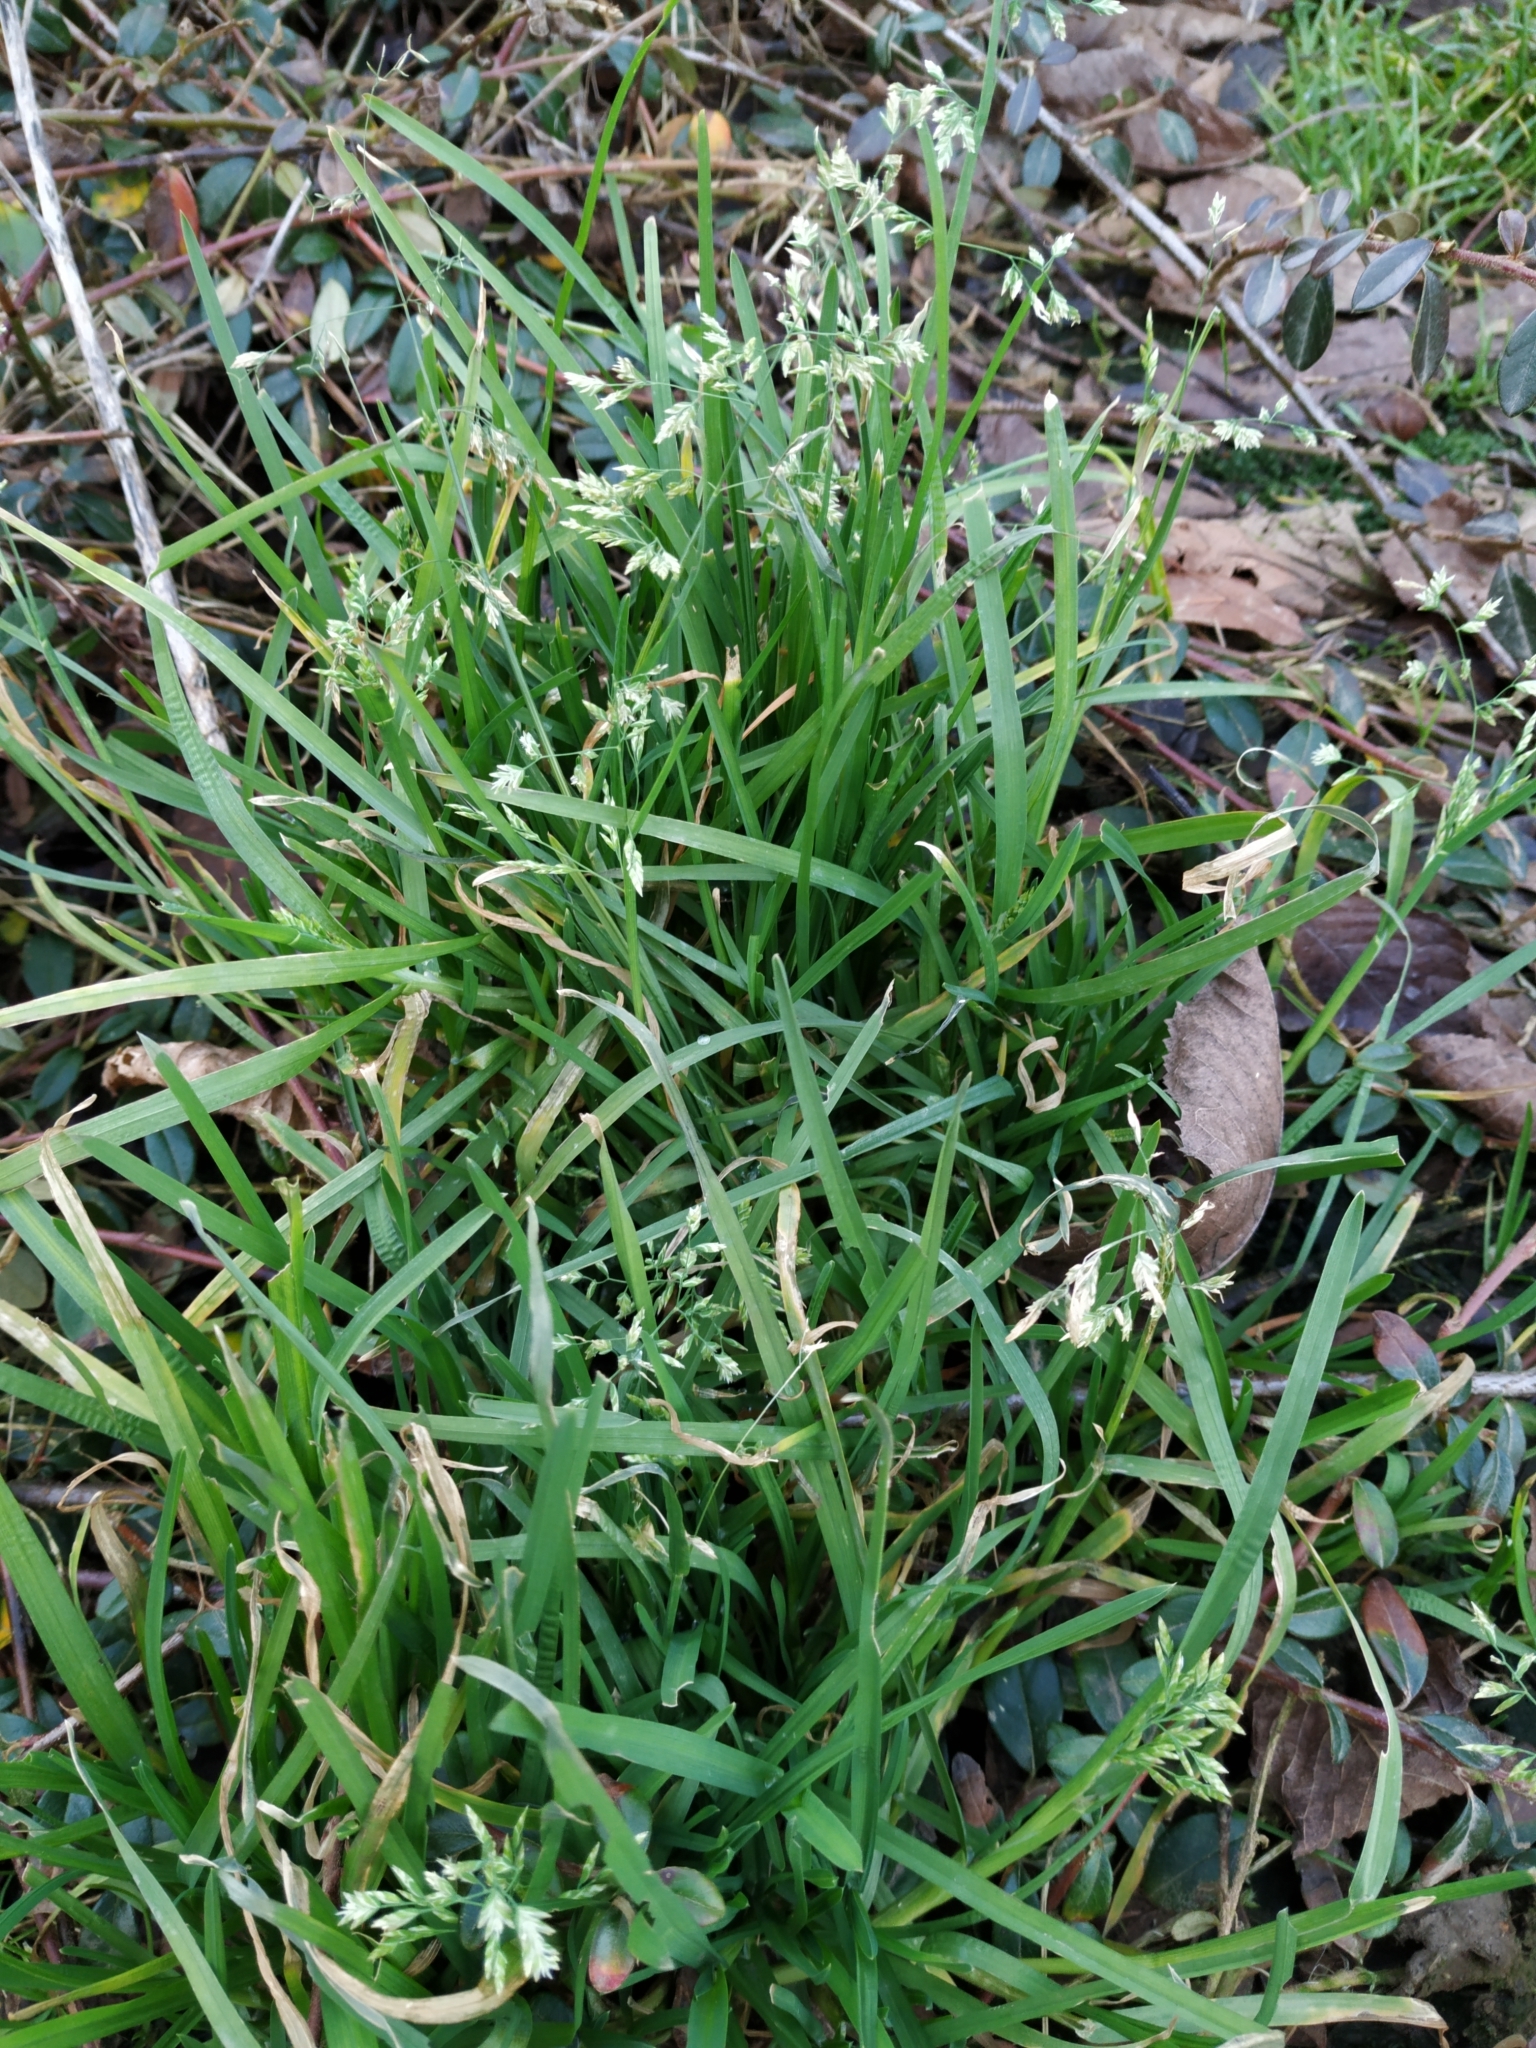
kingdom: Plantae
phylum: Tracheophyta
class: Liliopsida
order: Poales
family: Poaceae
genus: Poa
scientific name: Poa annua
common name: Annual bluegrass
